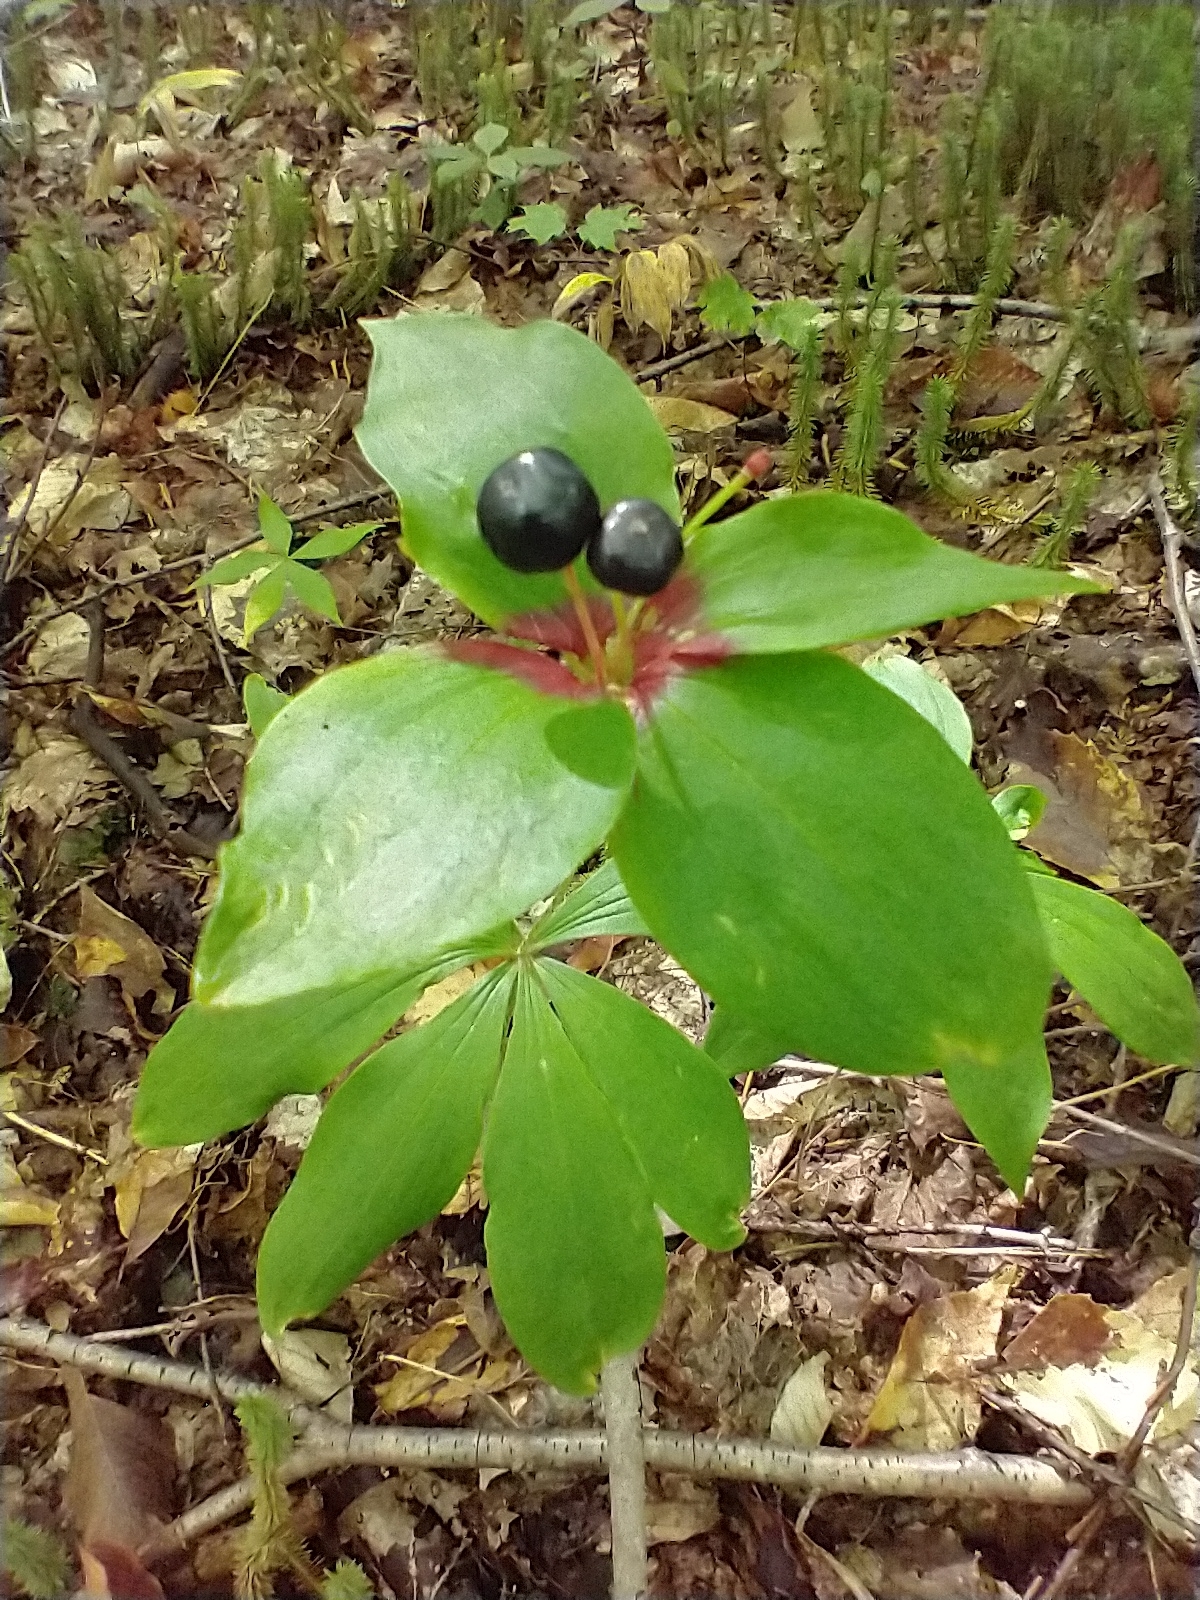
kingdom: Plantae
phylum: Tracheophyta
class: Liliopsida
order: Liliales
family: Liliaceae
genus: Medeola
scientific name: Medeola virginiana
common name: Indian cucumber-root
